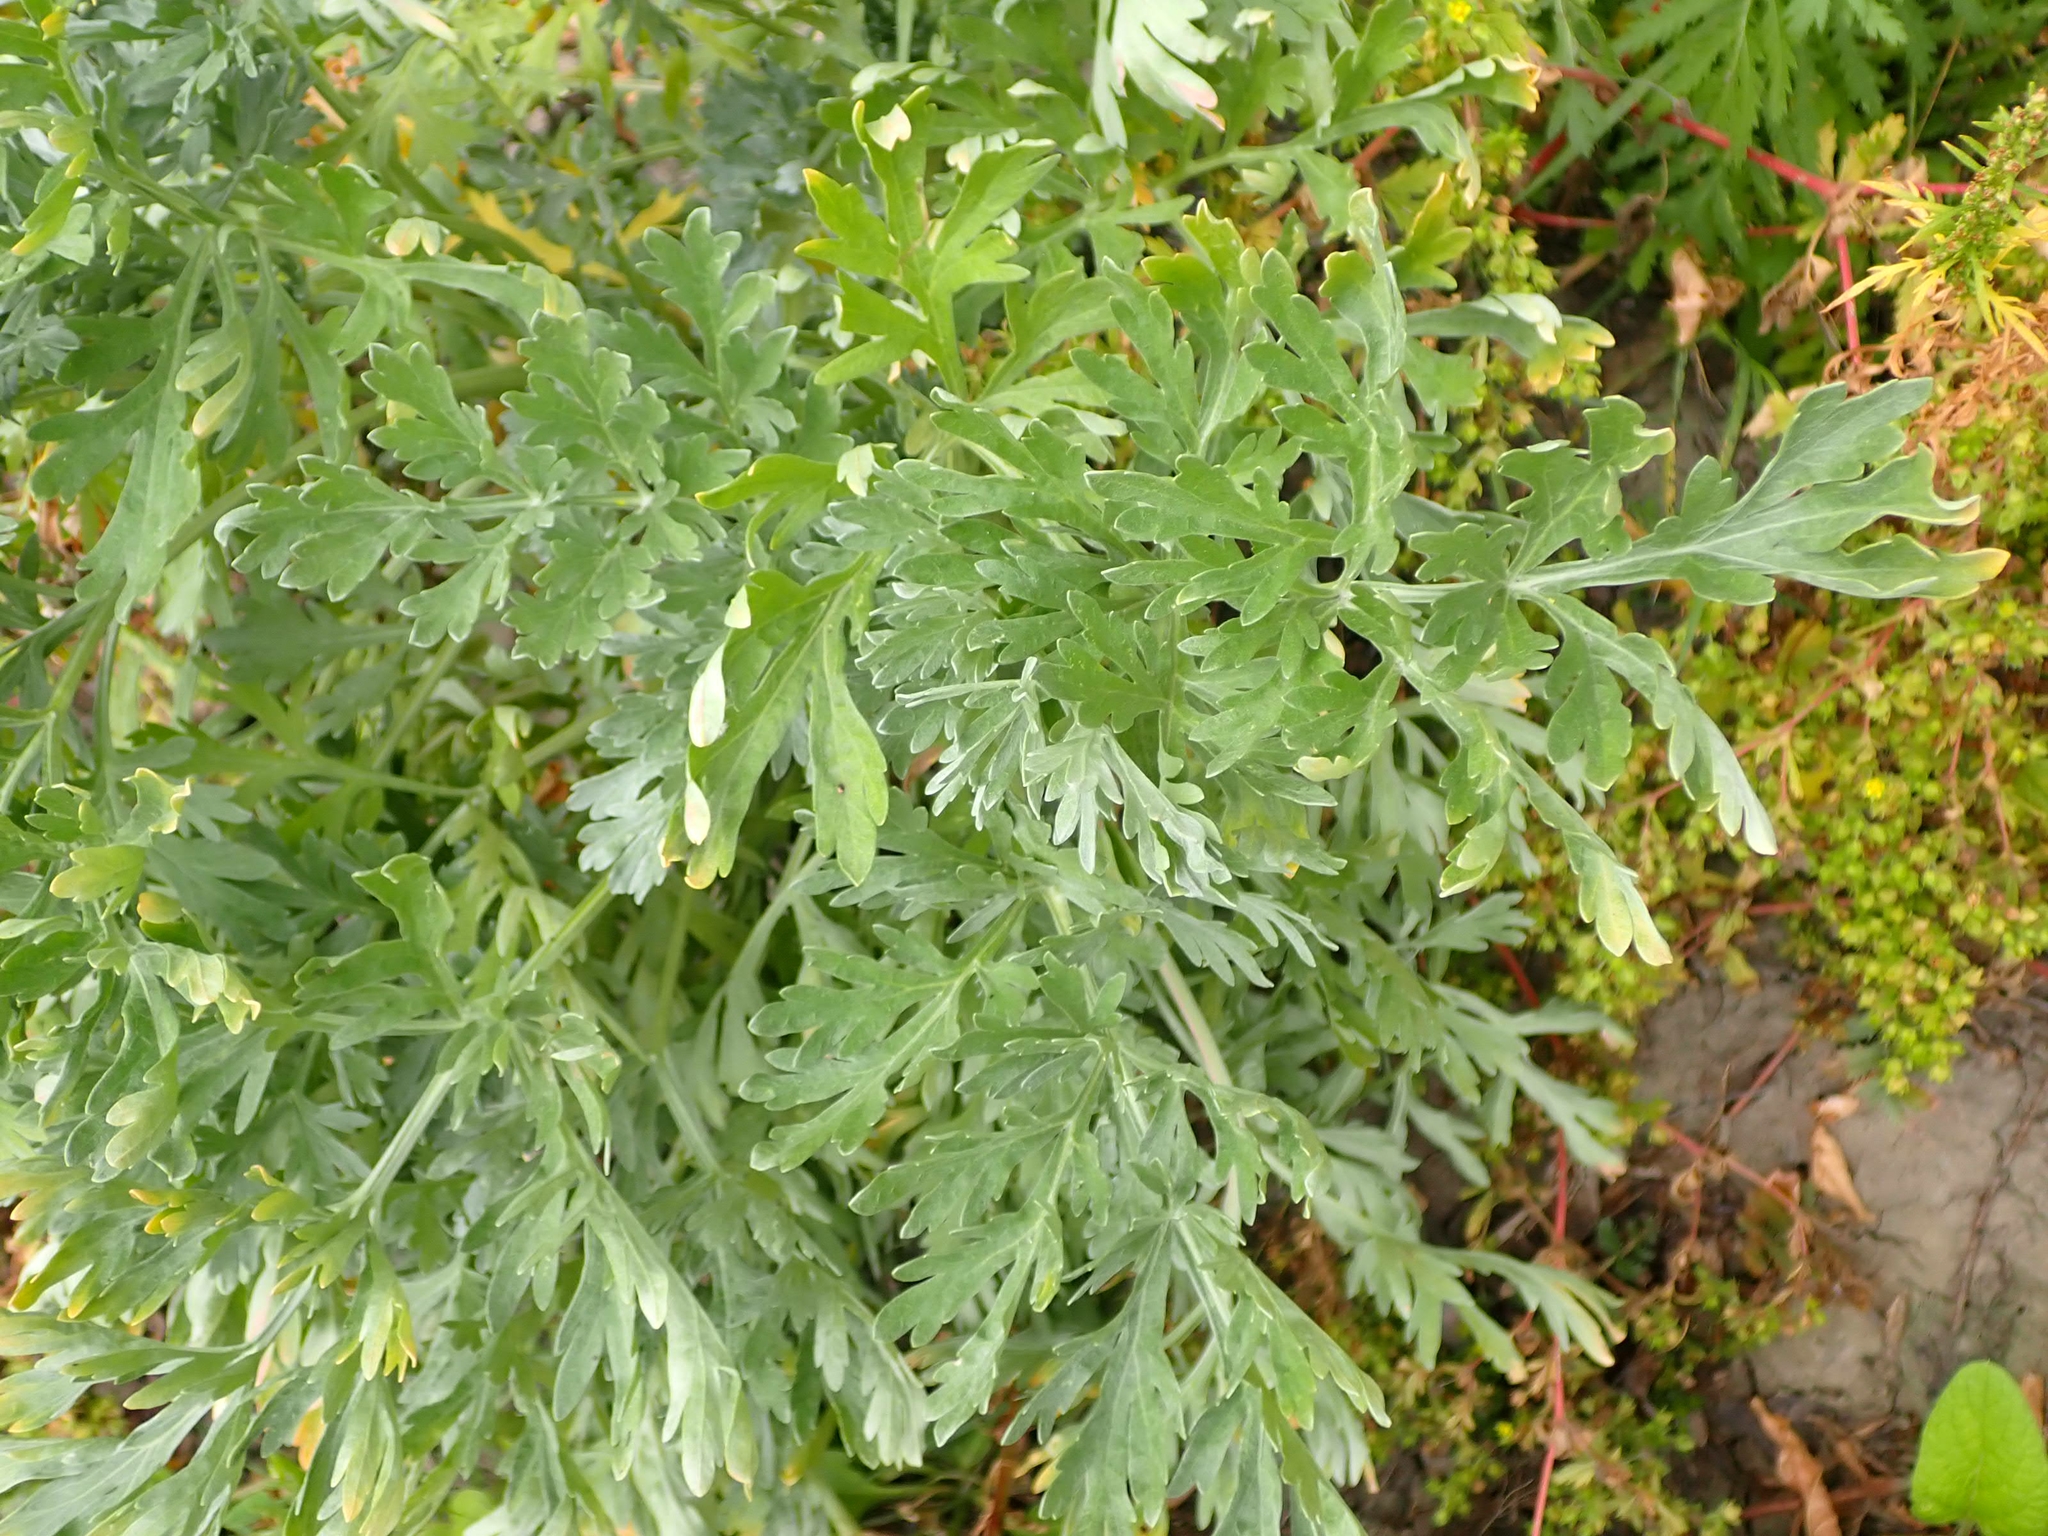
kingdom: Plantae
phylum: Tracheophyta
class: Magnoliopsida
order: Asterales
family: Asteraceae
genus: Artemisia
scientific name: Artemisia absinthium
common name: Wormwood
